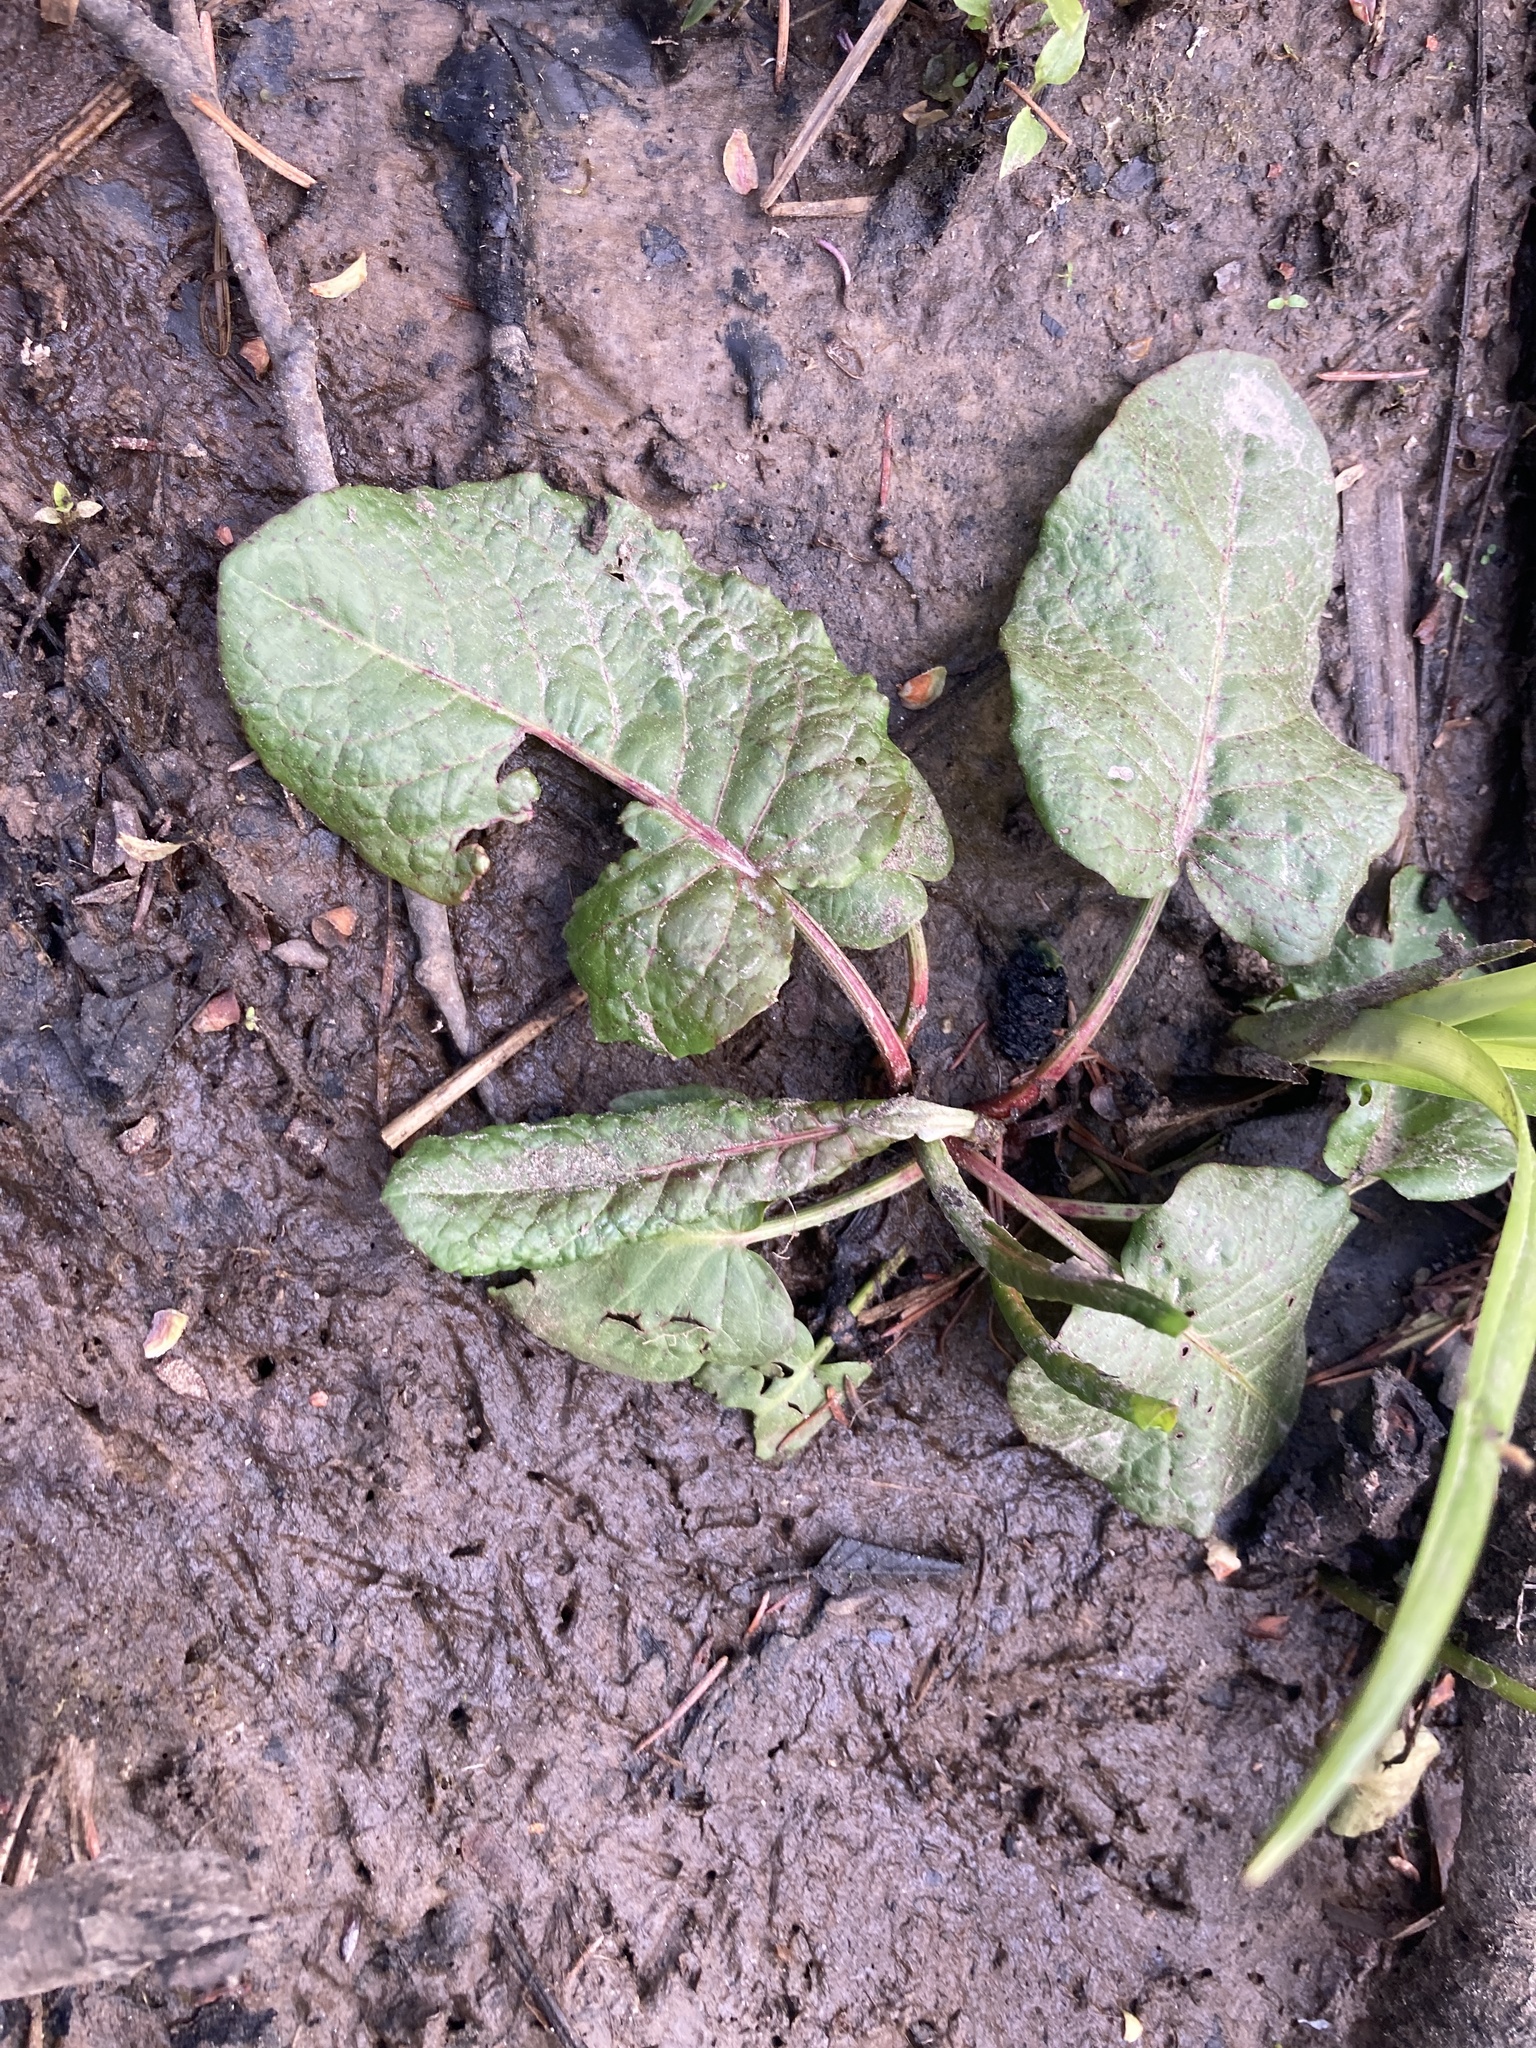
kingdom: Plantae
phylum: Tracheophyta
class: Magnoliopsida
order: Caryophyllales
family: Polygonaceae
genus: Rumex
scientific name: Rumex obtusifolius
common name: Bitter dock
